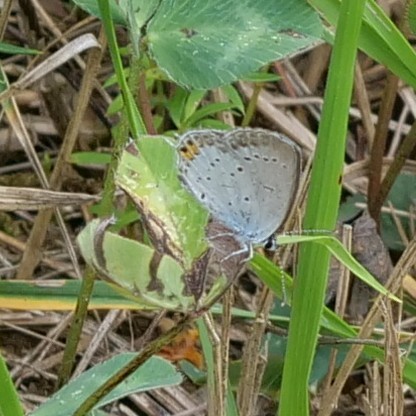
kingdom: Animalia
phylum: Arthropoda
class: Insecta
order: Lepidoptera
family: Lycaenidae
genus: Elkalyce
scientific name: Elkalyce argiades
